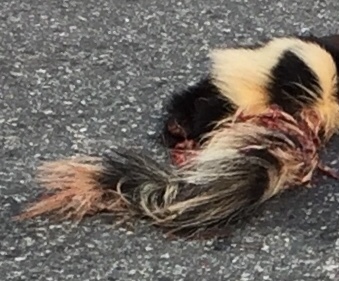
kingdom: Animalia
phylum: Chordata
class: Mammalia
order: Carnivora
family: Mephitidae
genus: Mephitis
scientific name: Mephitis mephitis
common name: Striped skunk
